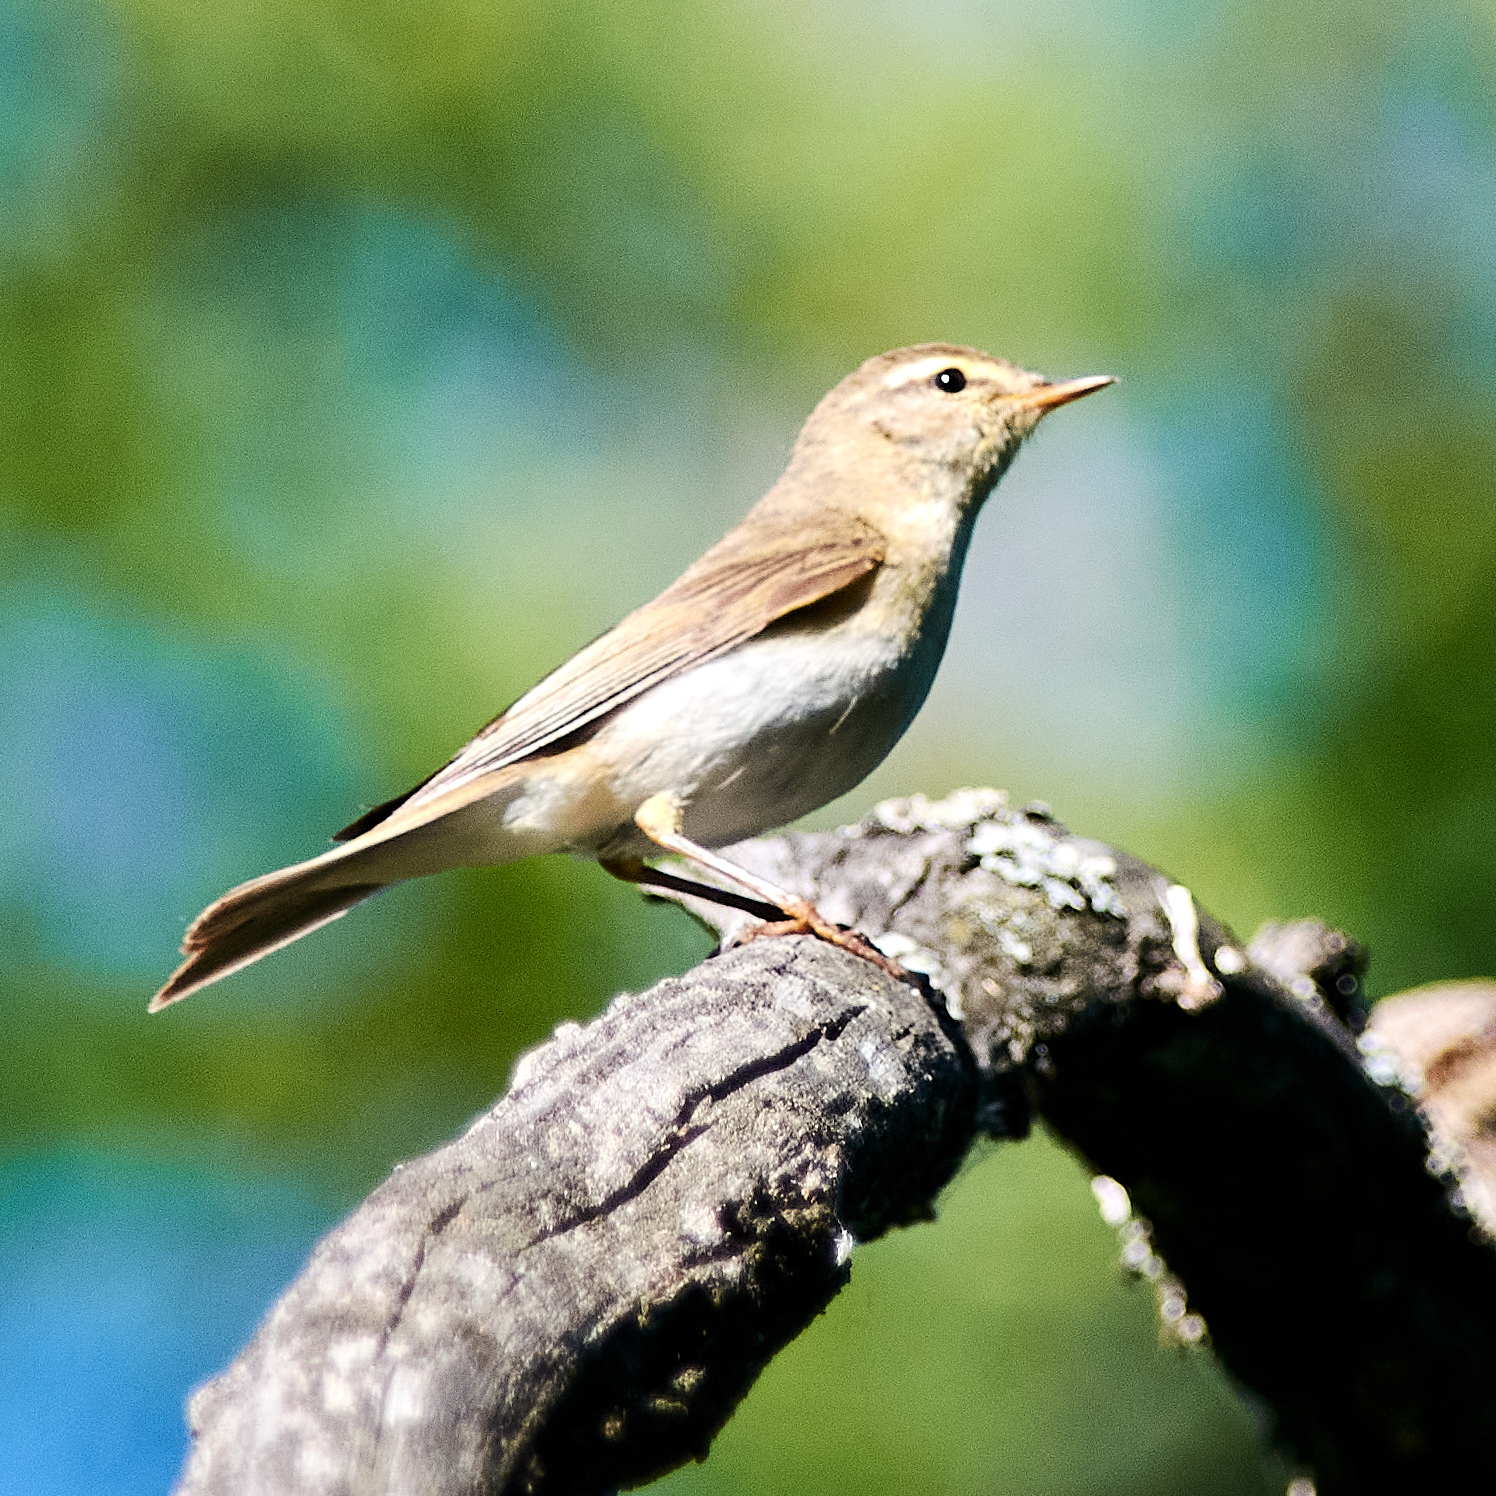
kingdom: Animalia
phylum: Chordata
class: Aves
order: Passeriformes
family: Phylloscopidae
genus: Phylloscopus
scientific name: Phylloscopus trochilus
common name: Willow warbler
